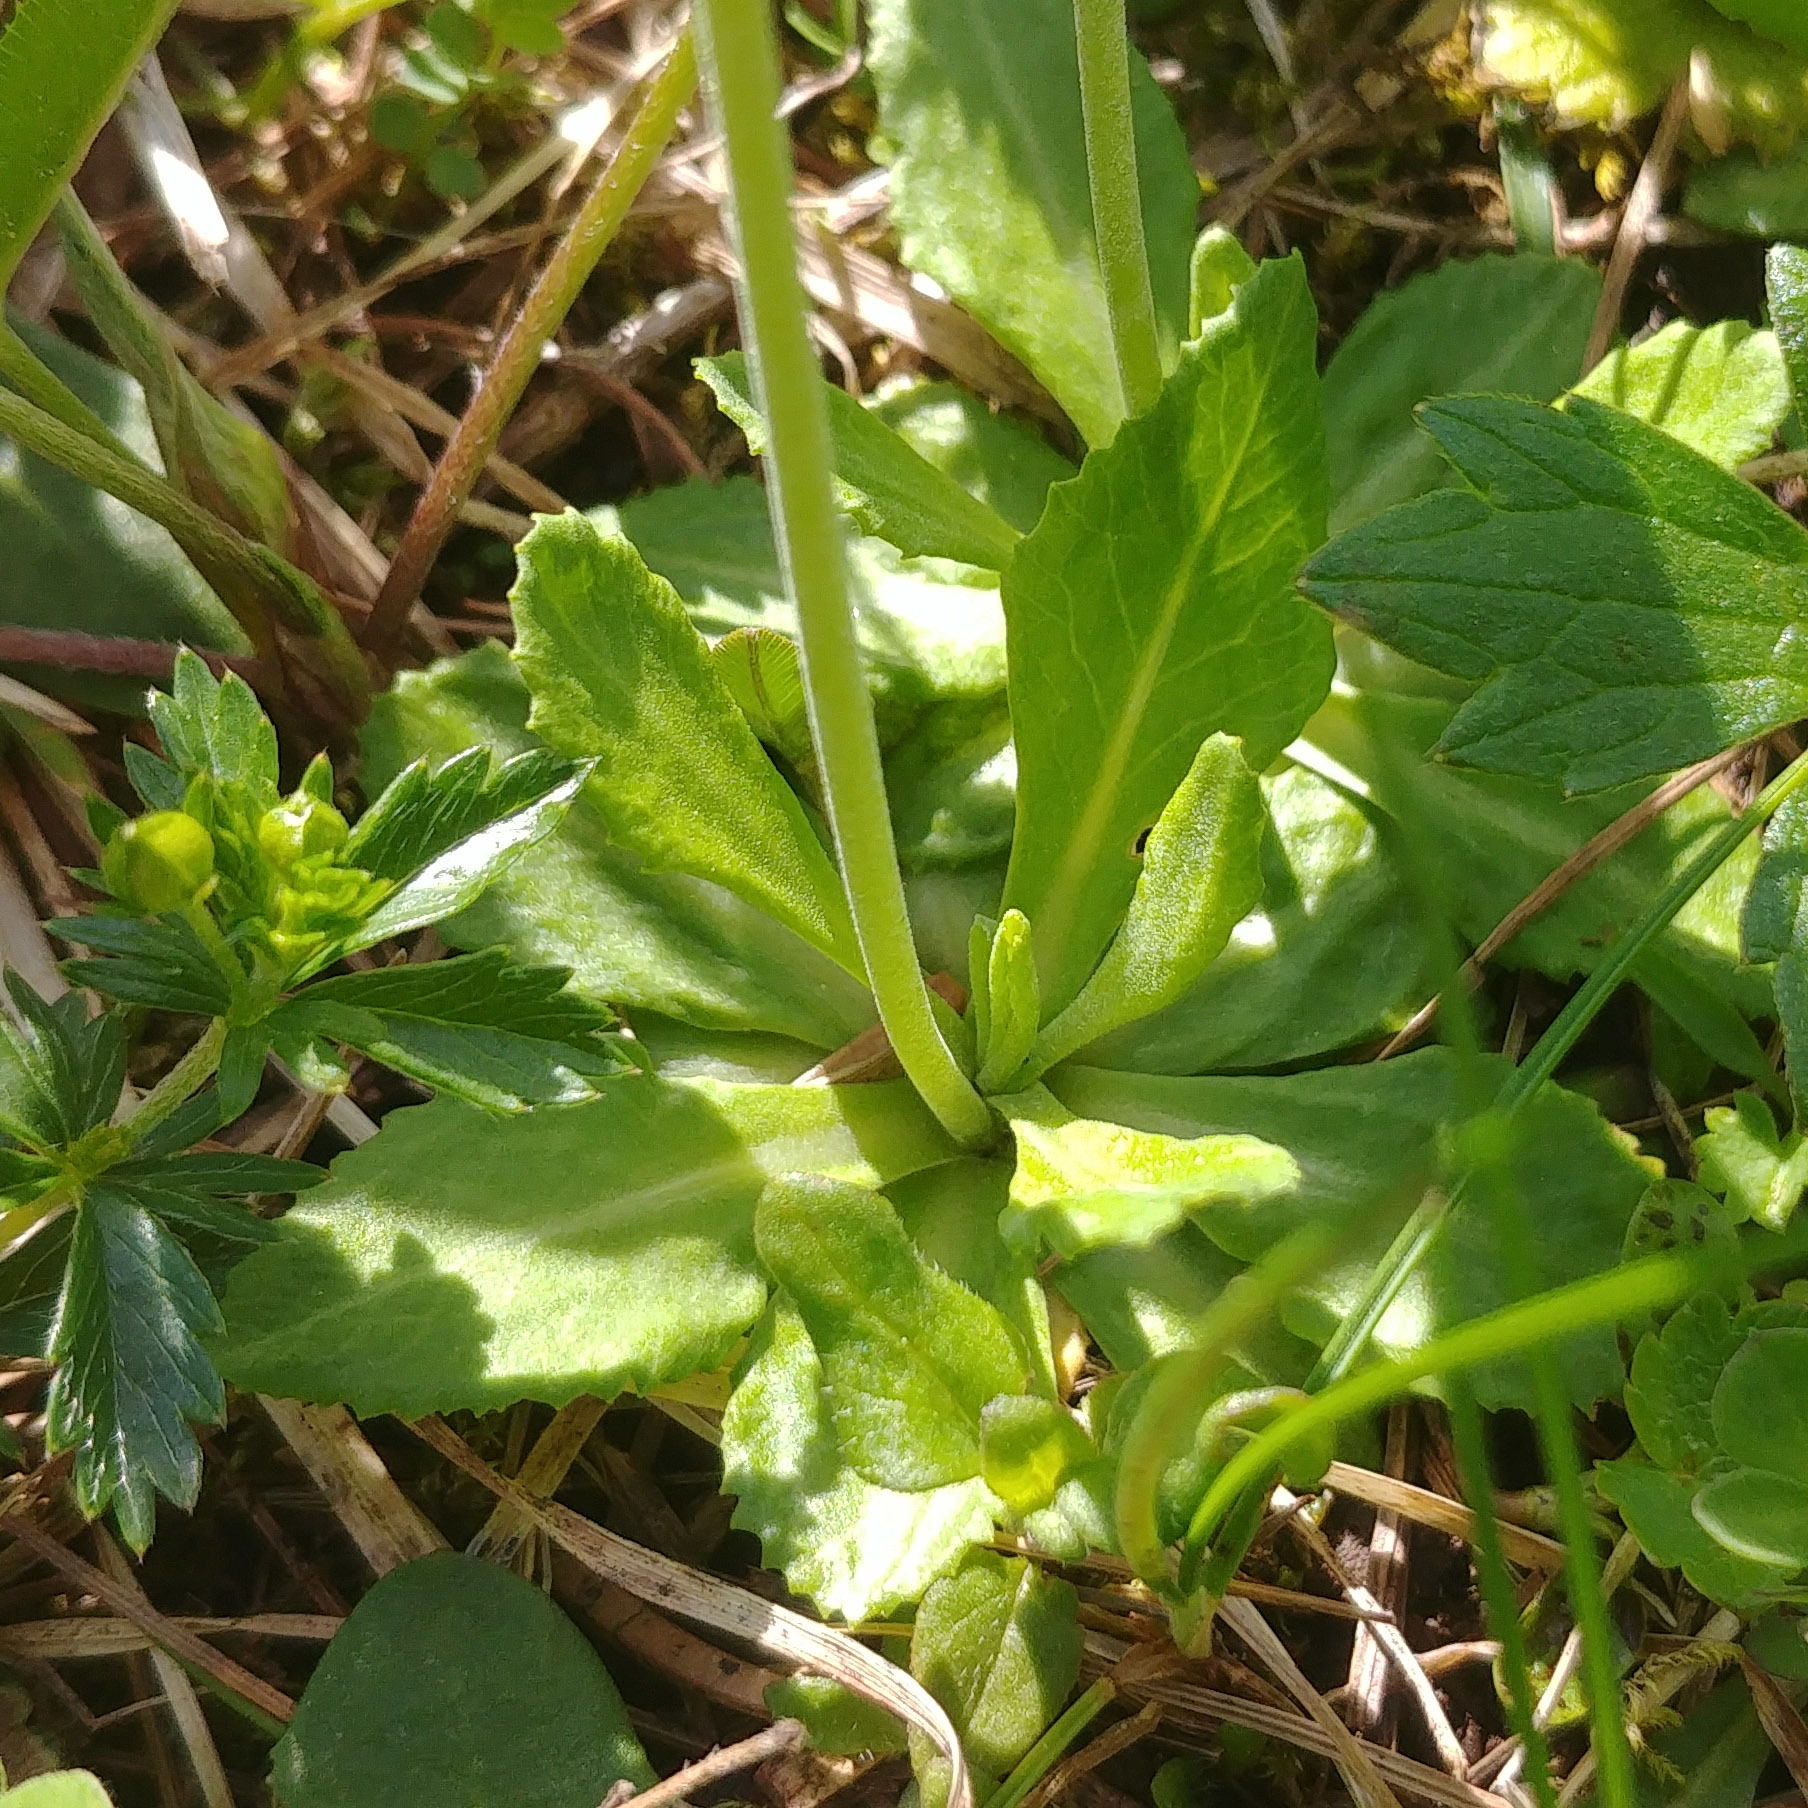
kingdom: Plantae
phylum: Tracheophyta
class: Magnoliopsida
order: Ericales
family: Primulaceae
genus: Primula
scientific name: Primula farinosa
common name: Bird's-eye primrose
